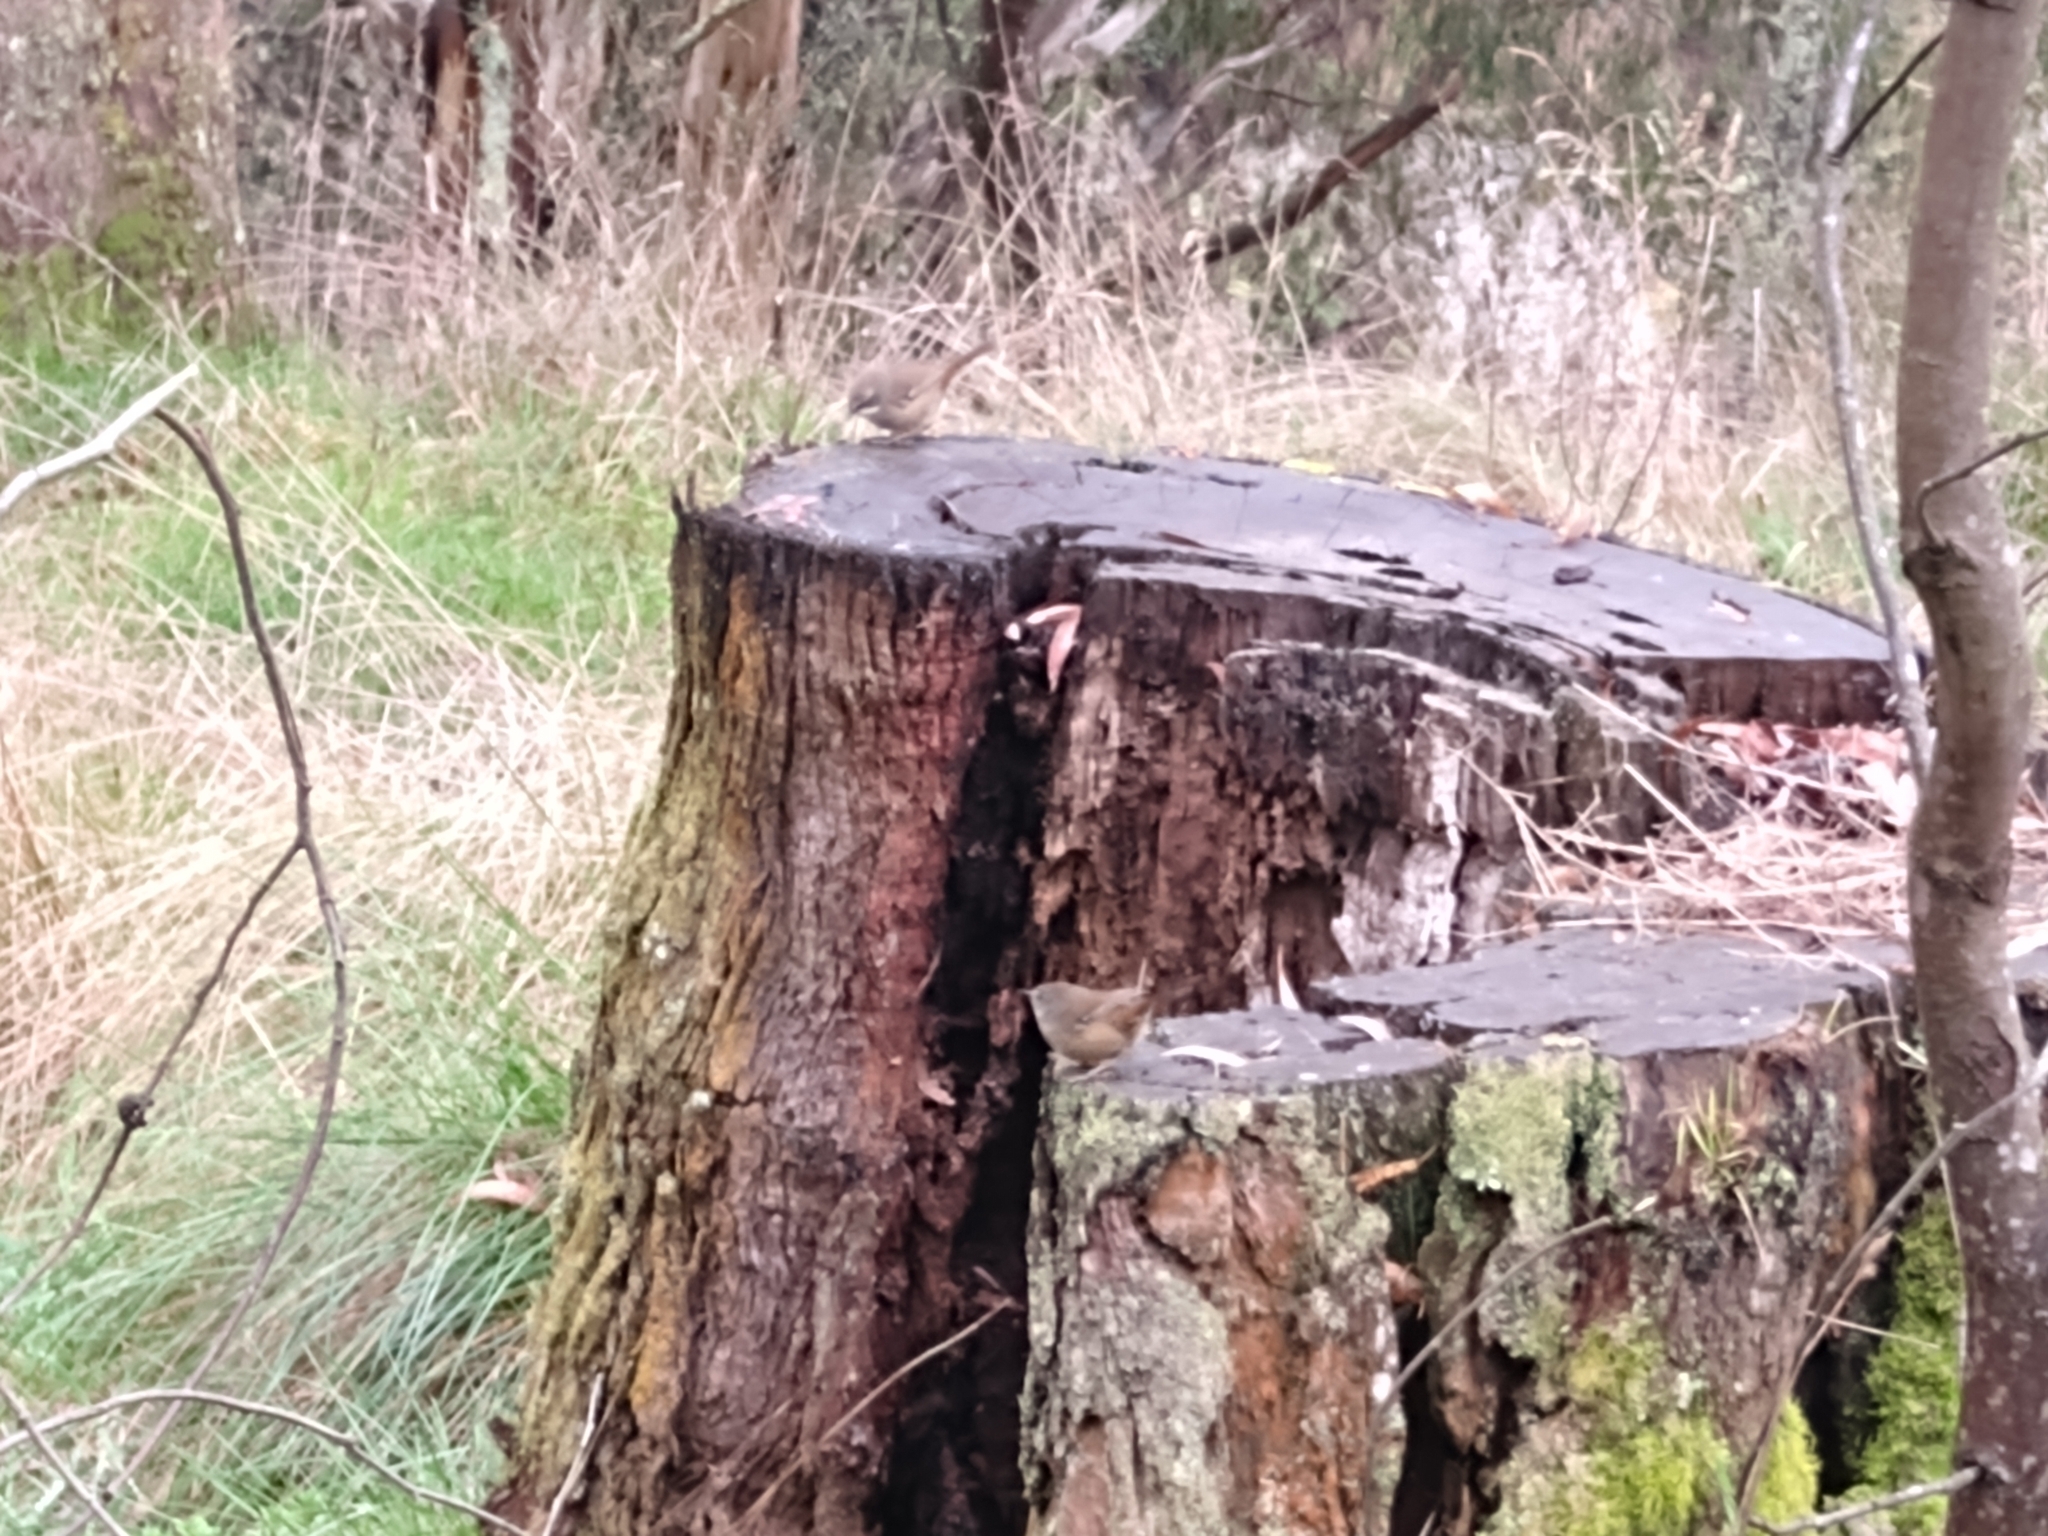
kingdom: Animalia
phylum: Chordata
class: Aves
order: Passeriformes
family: Acanthizidae
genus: Sericornis
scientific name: Sericornis frontalis
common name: White-browed scrubwren
